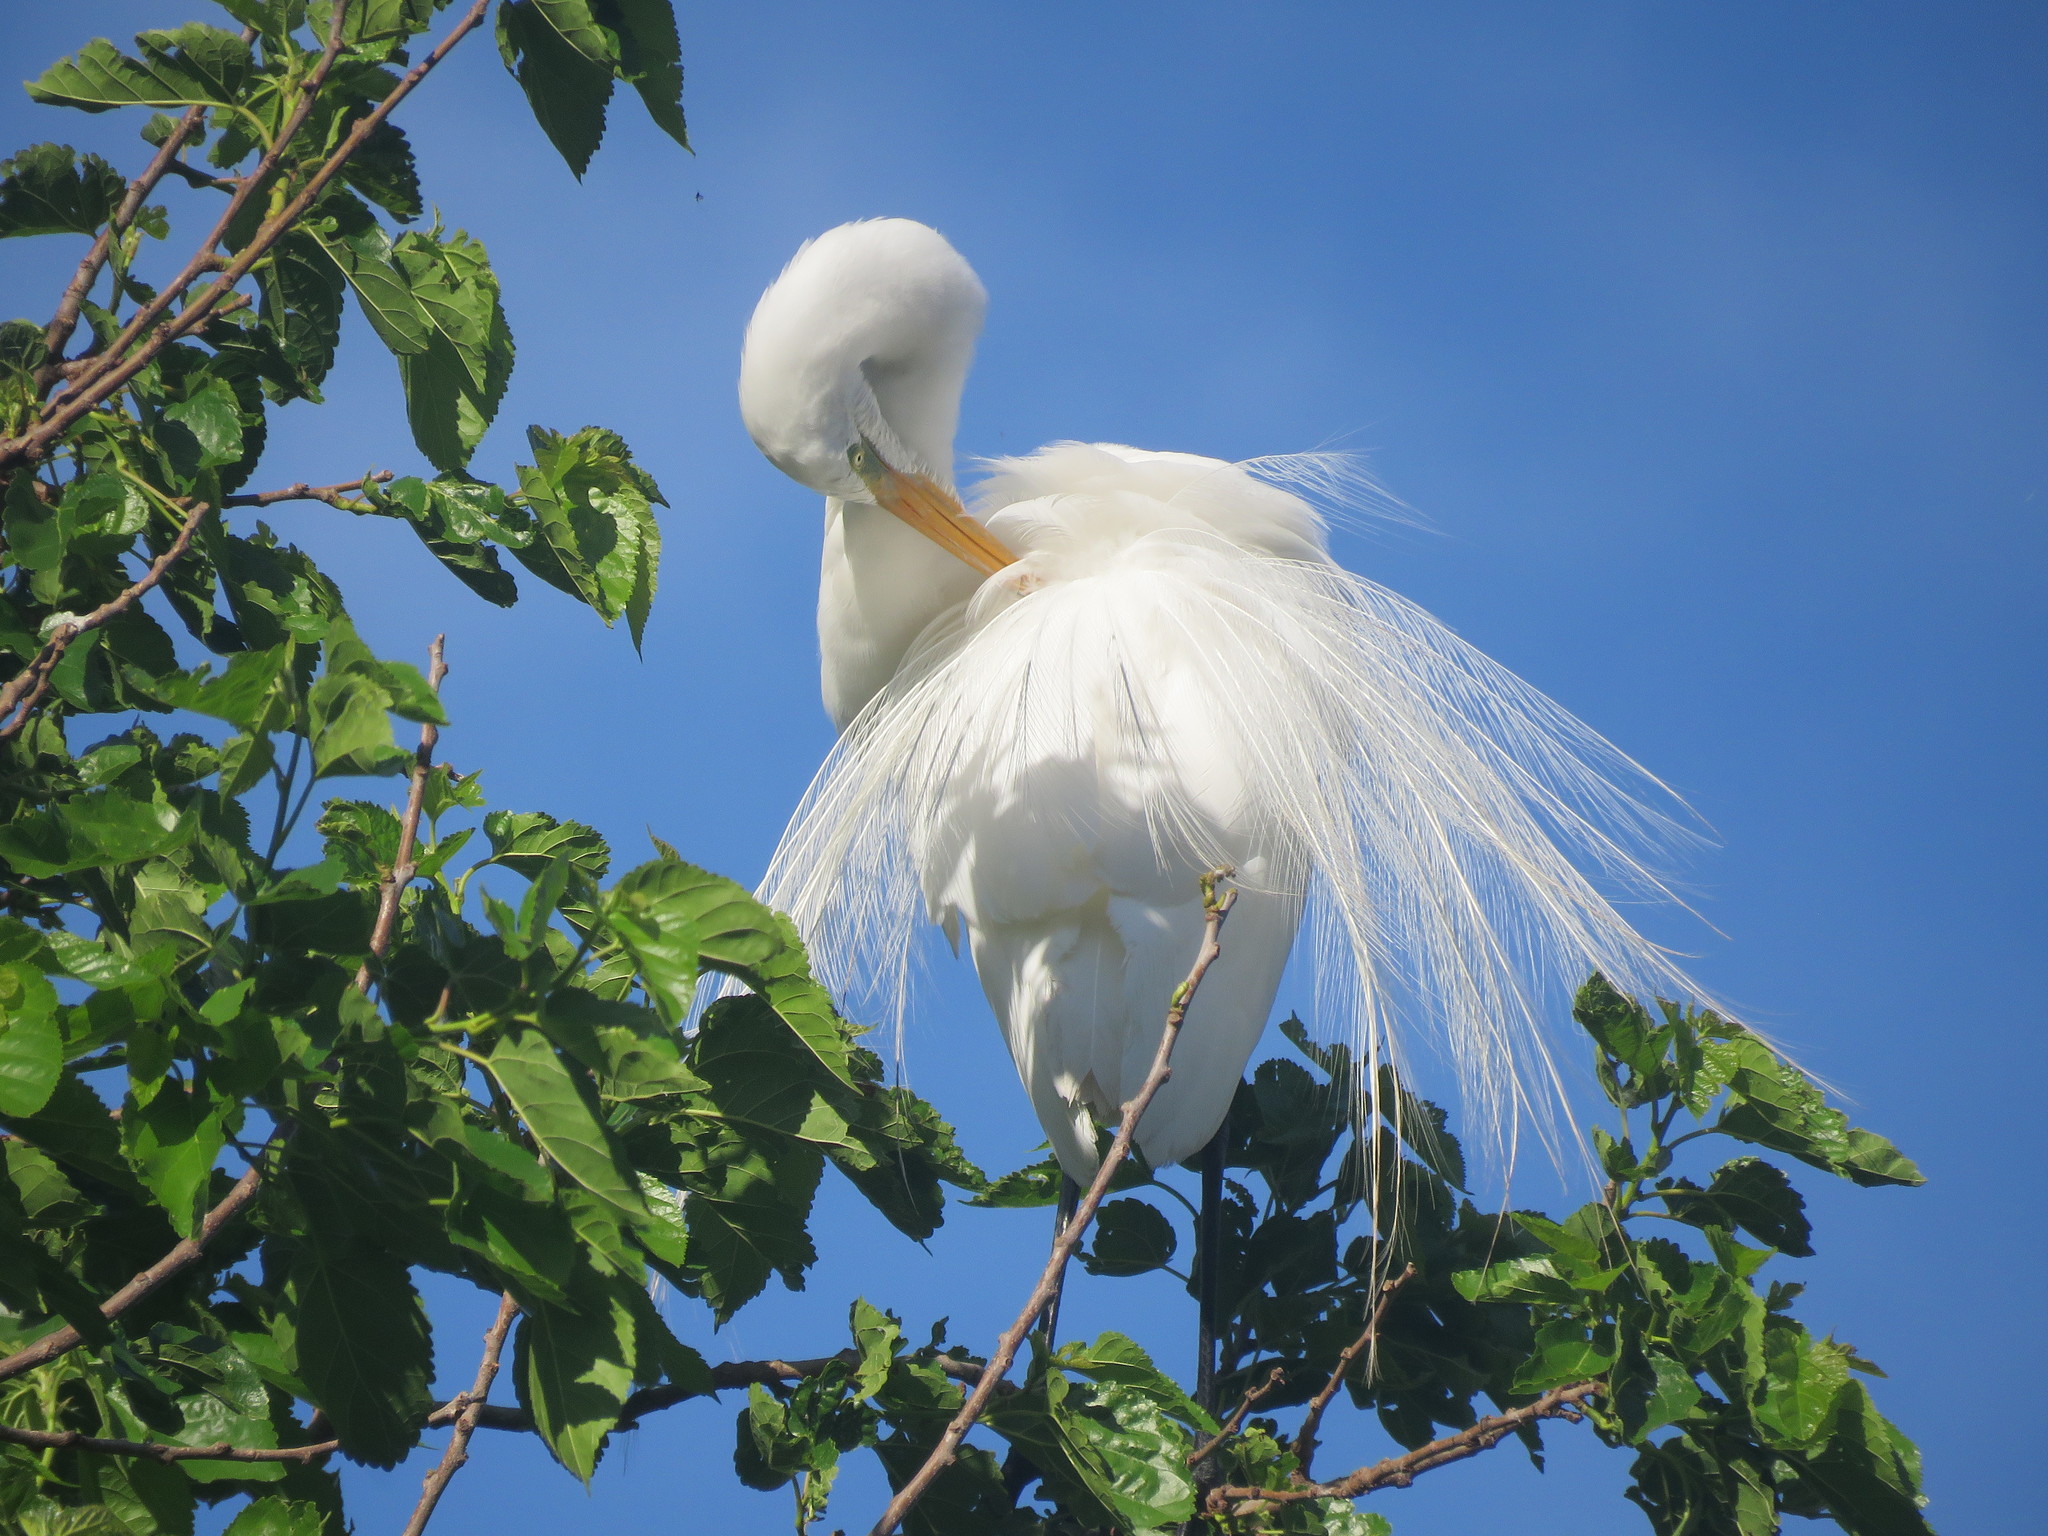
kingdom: Animalia
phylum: Chordata
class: Aves
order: Pelecaniformes
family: Ardeidae
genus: Ardea
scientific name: Ardea alba
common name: Great egret
